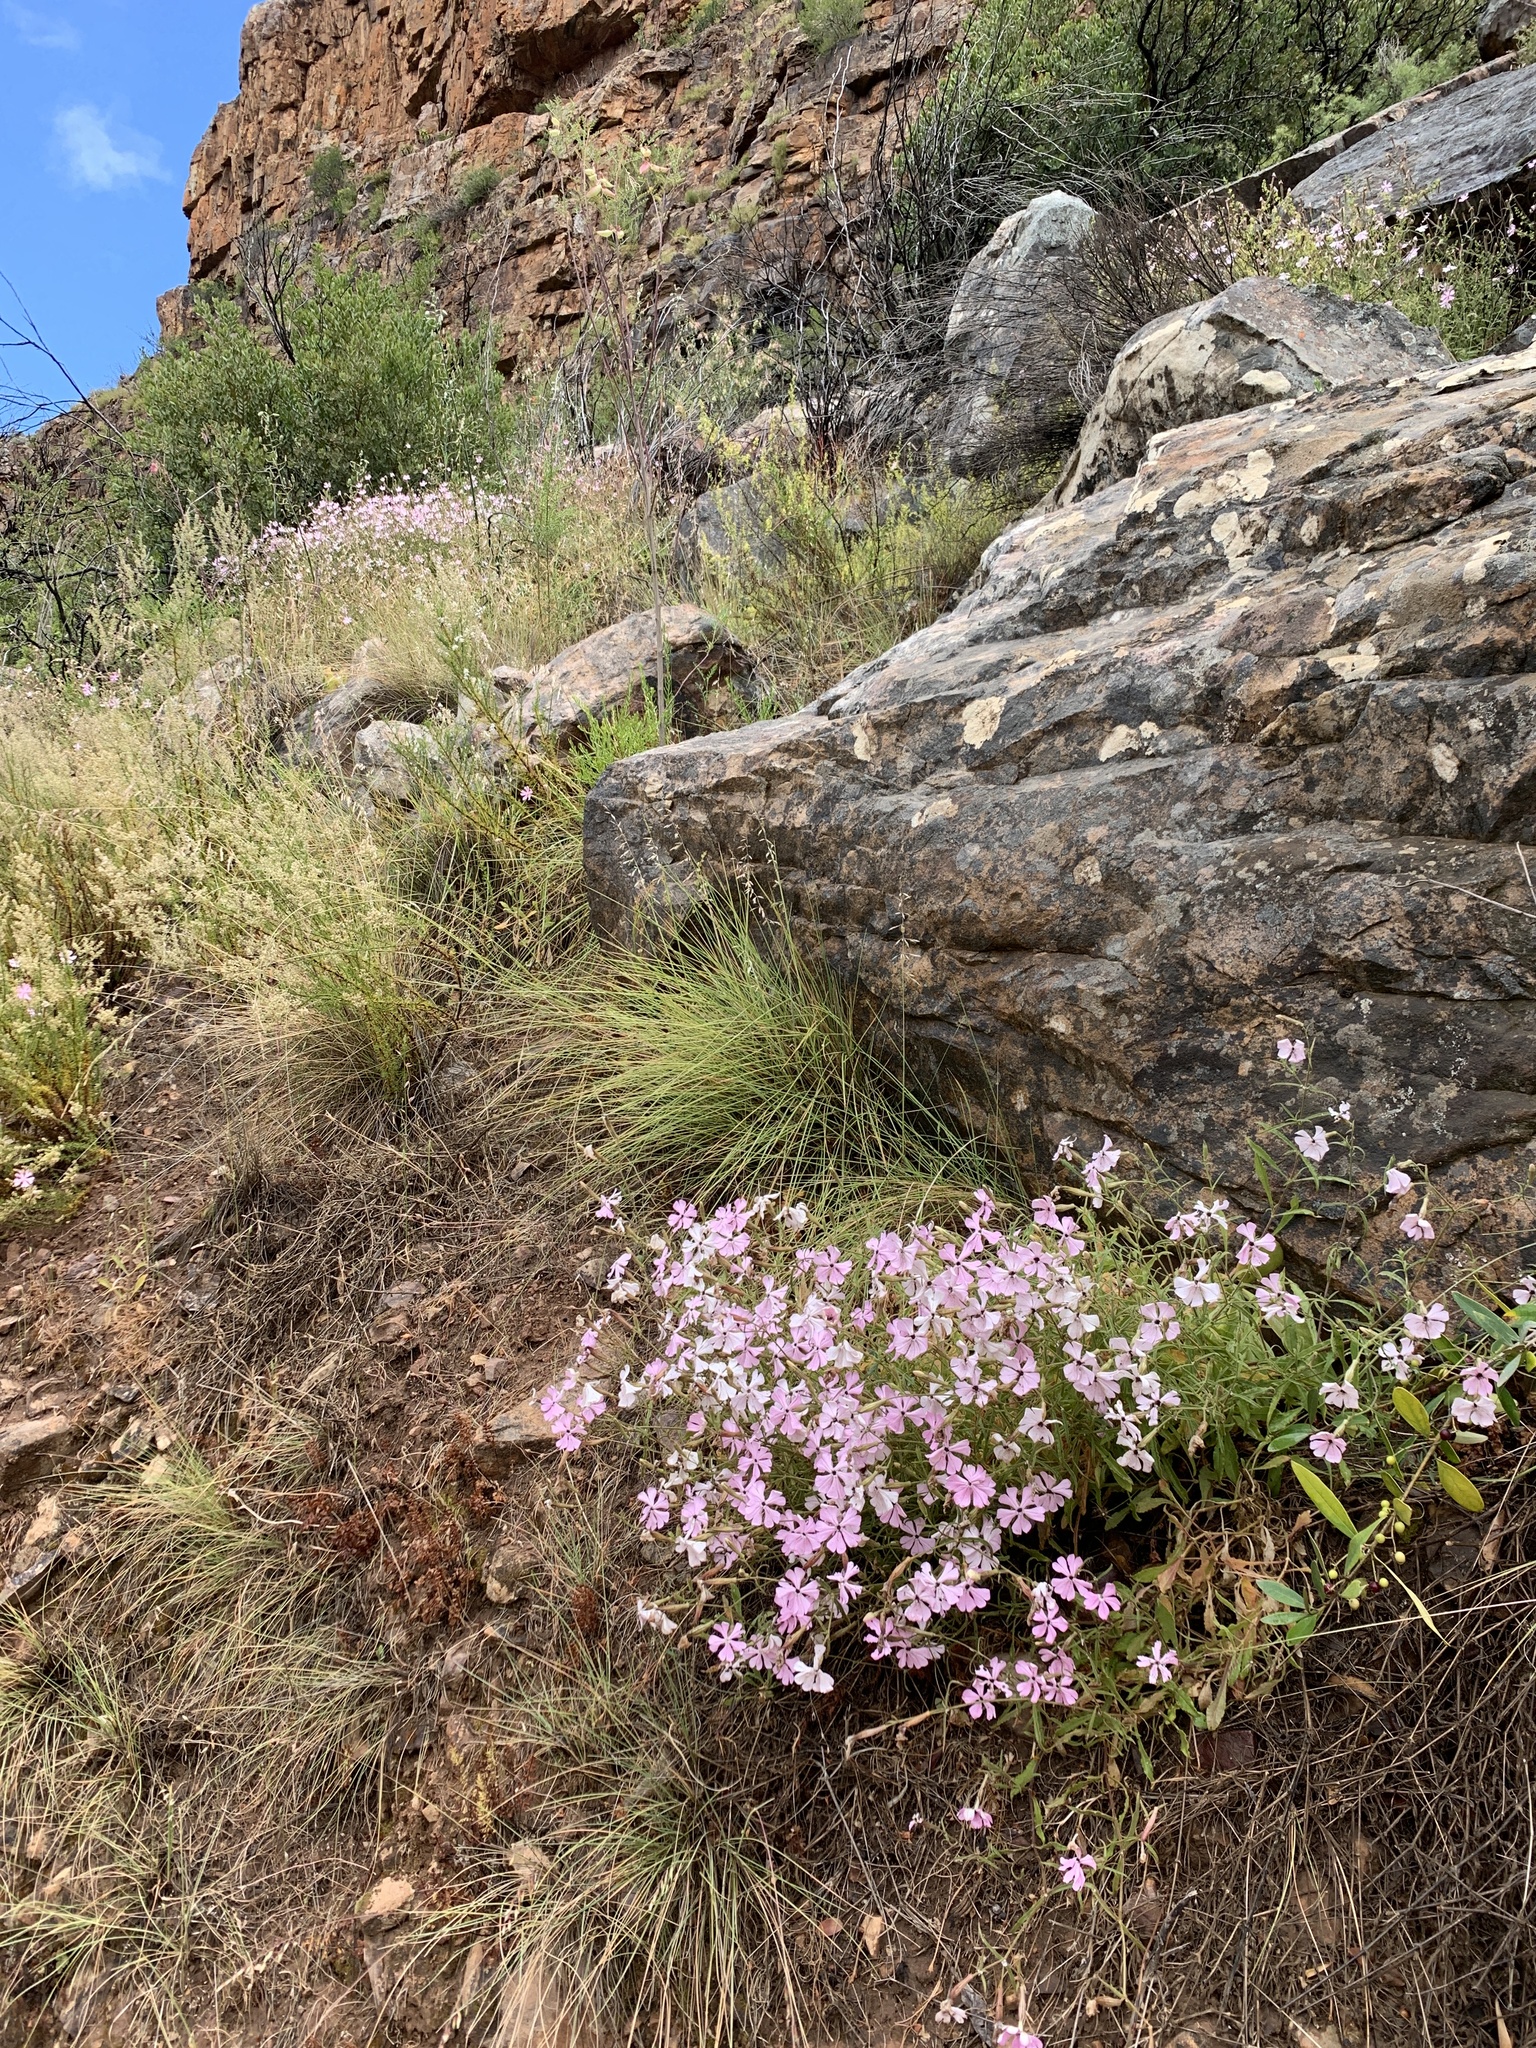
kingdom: Plantae
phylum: Tracheophyta
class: Magnoliopsida
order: Caryophyllales
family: Caryophyllaceae
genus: Silene
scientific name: Silene undulata
